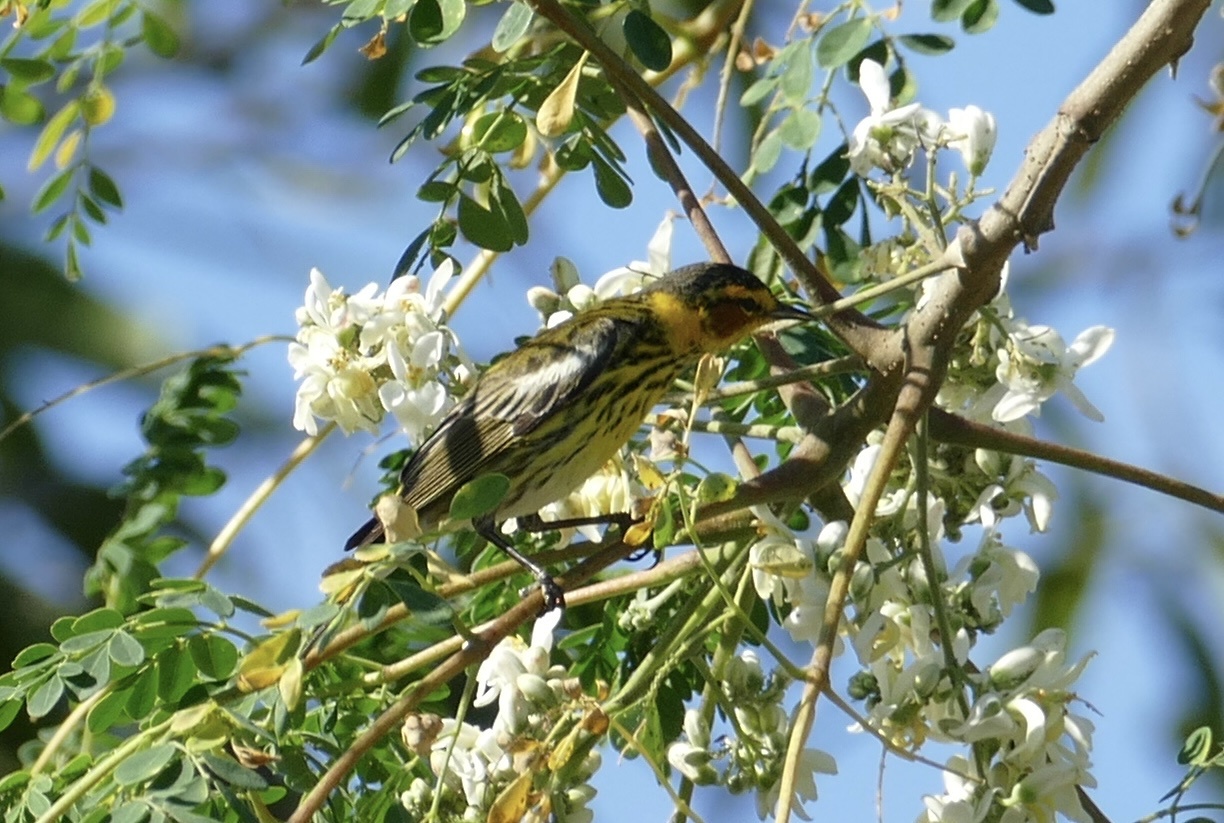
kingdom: Animalia
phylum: Chordata
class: Aves
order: Passeriformes
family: Parulidae
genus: Setophaga
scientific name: Setophaga tigrina
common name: Cape may warbler
